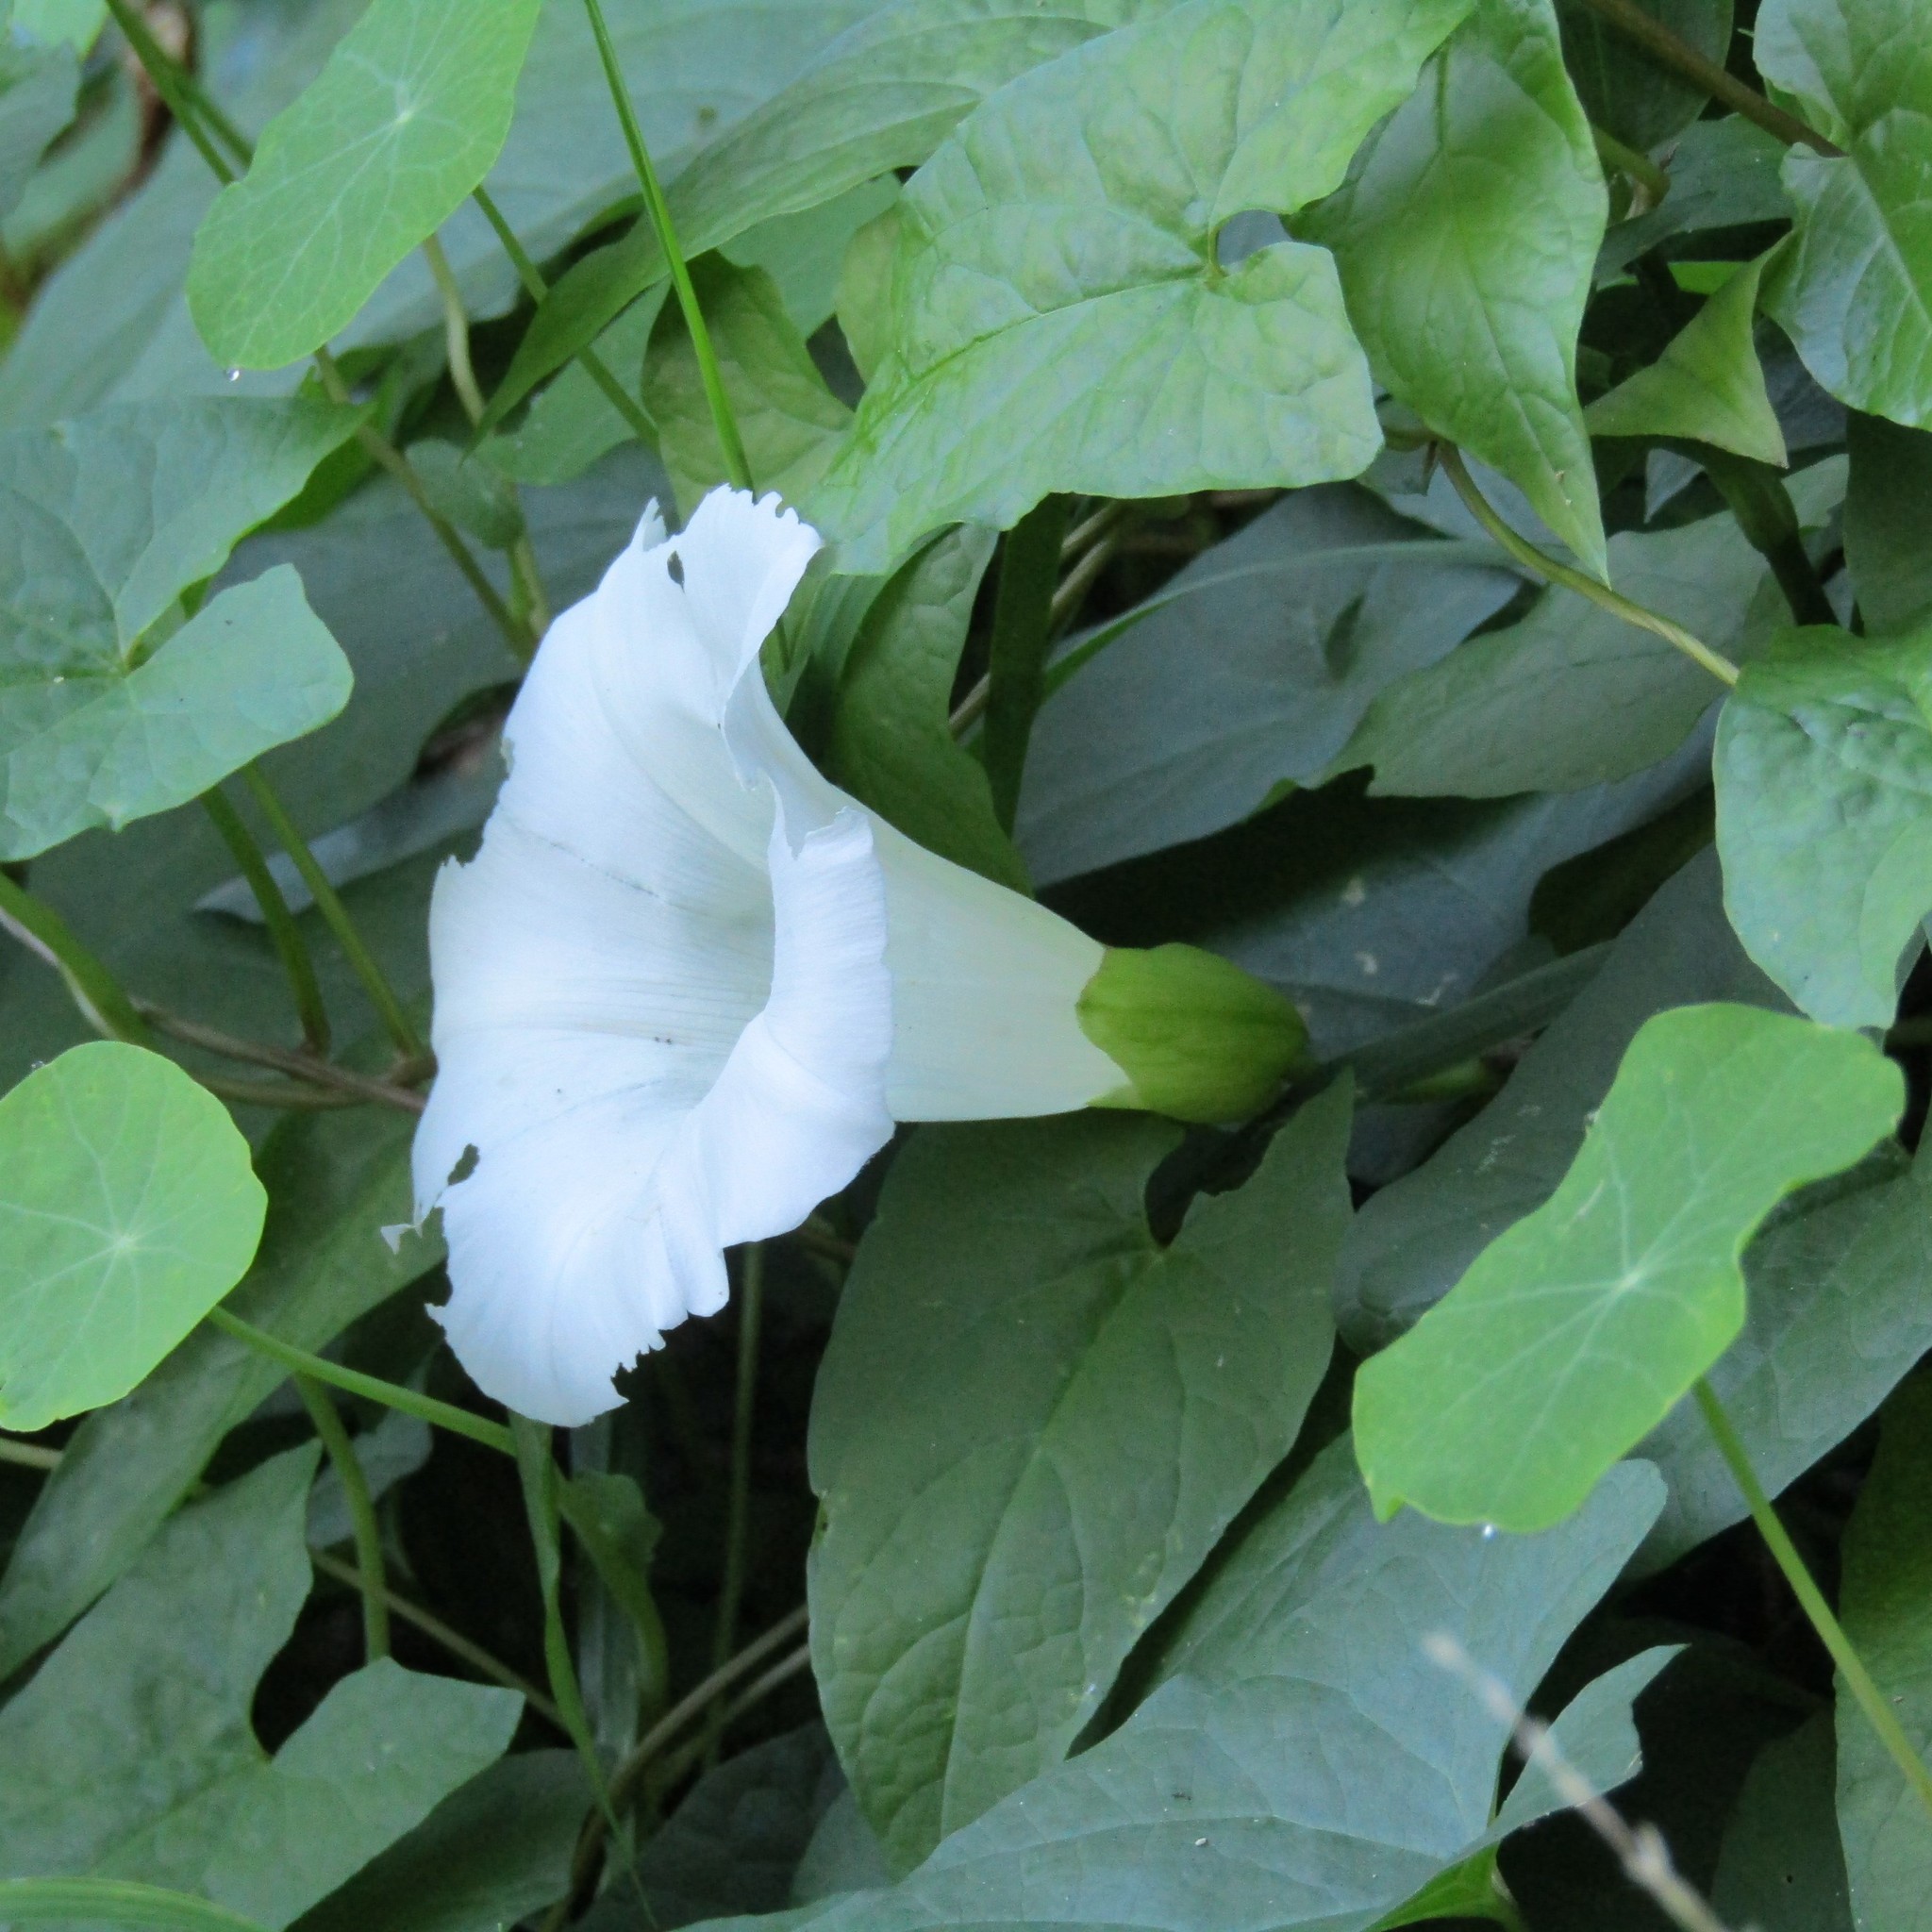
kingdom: Plantae
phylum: Tracheophyta
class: Magnoliopsida
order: Solanales
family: Convolvulaceae
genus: Calystegia
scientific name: Calystegia silvatica
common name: Large bindweed
